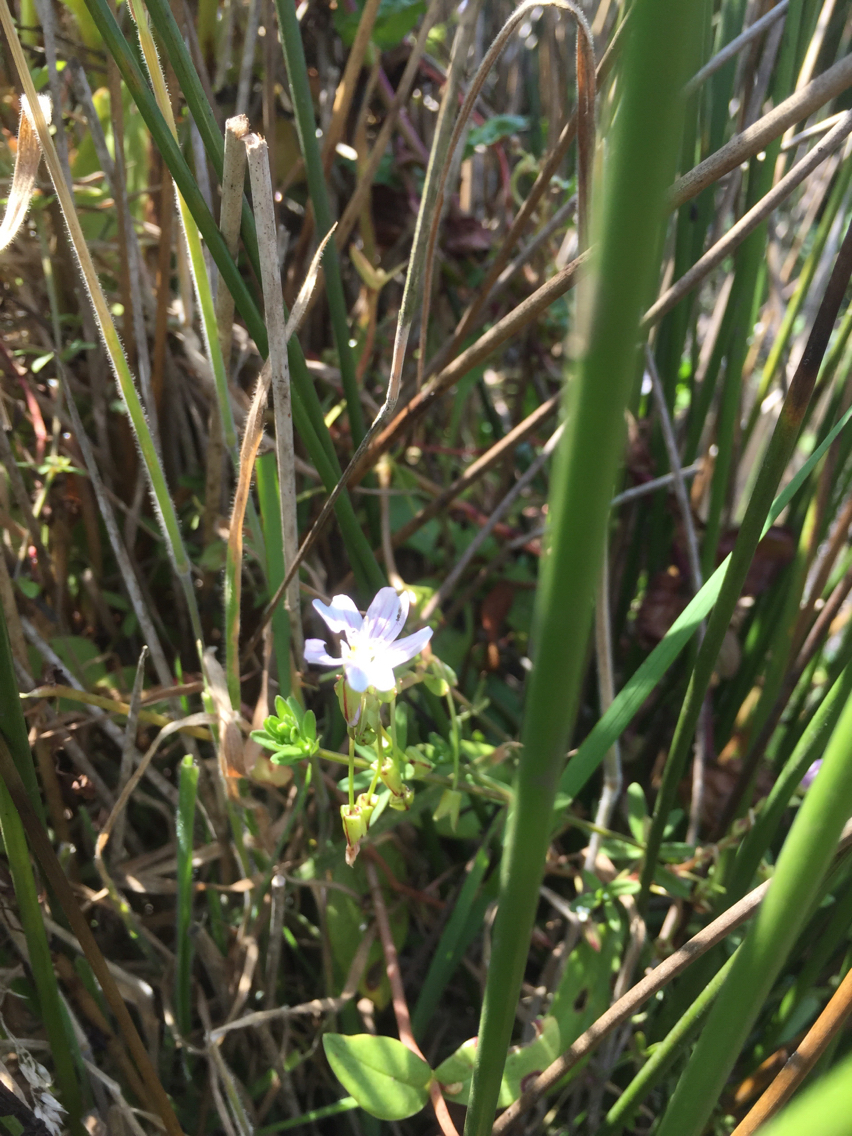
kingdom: Plantae
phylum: Tracheophyta
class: Magnoliopsida
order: Caryophyllales
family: Montiaceae
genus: Claytonia
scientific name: Claytonia sibirica
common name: Pink purslane
